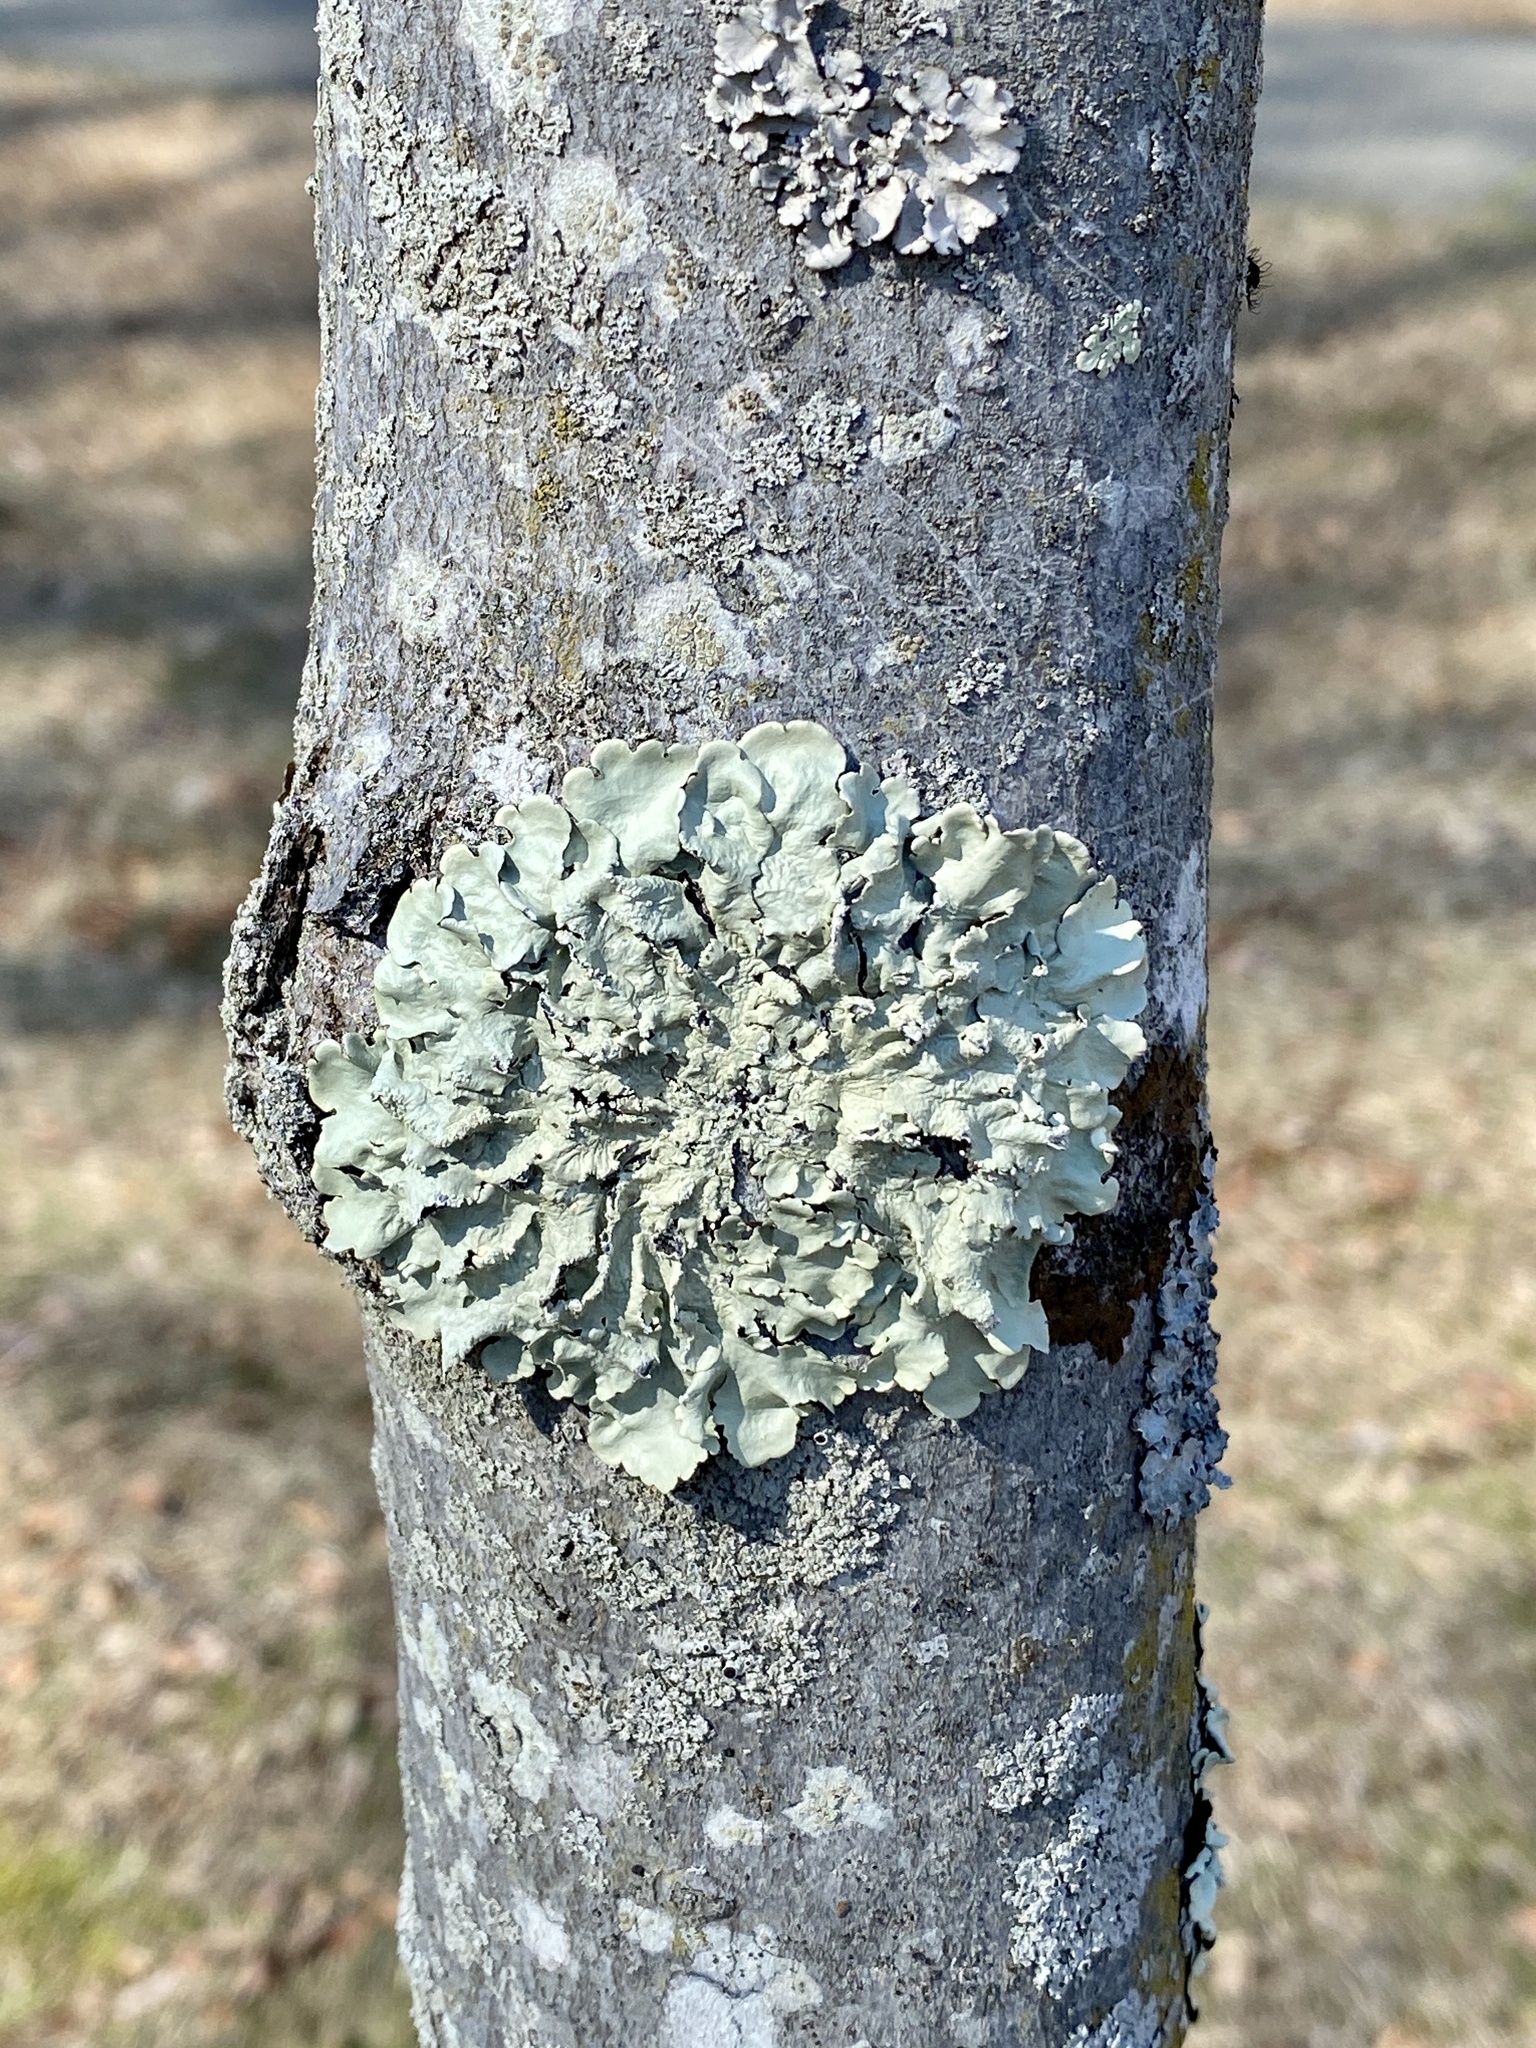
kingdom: Fungi
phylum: Ascomycota
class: Lecanoromycetes
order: Lecanorales
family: Parmeliaceae
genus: Flavoparmelia
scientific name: Flavoparmelia caperata
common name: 40-mile per hour lichen
